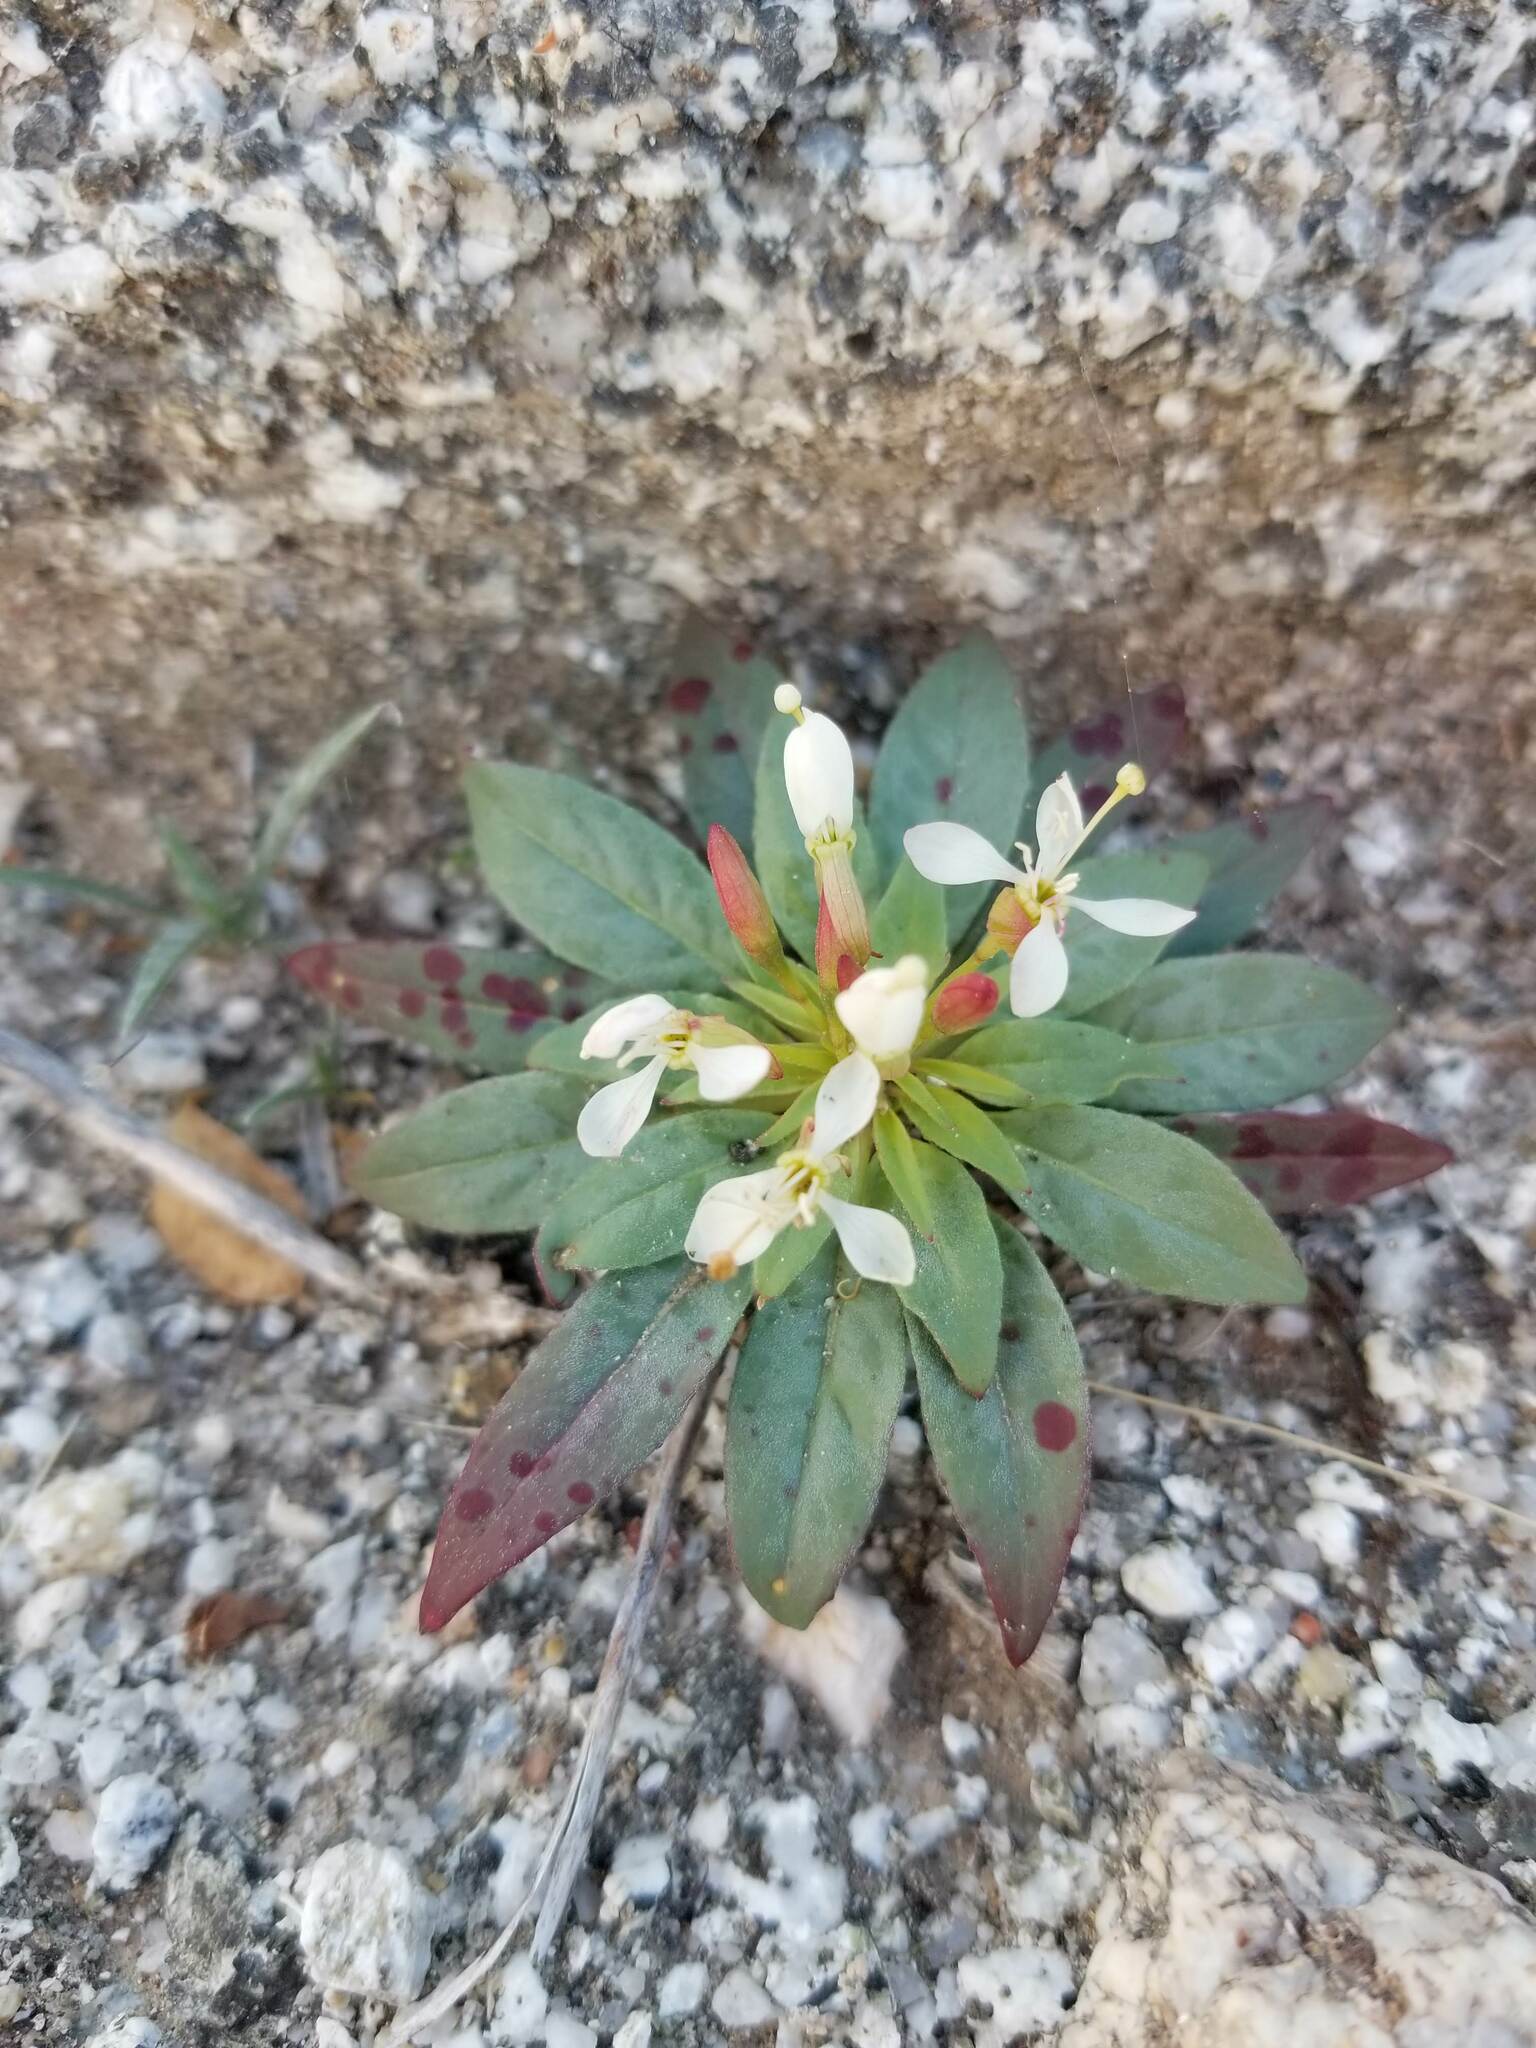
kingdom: Plantae
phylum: Tracheophyta
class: Magnoliopsida
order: Myrtales
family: Onagraceae
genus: Eremothera
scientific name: Eremothera boothii
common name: Booth's evening primrose
